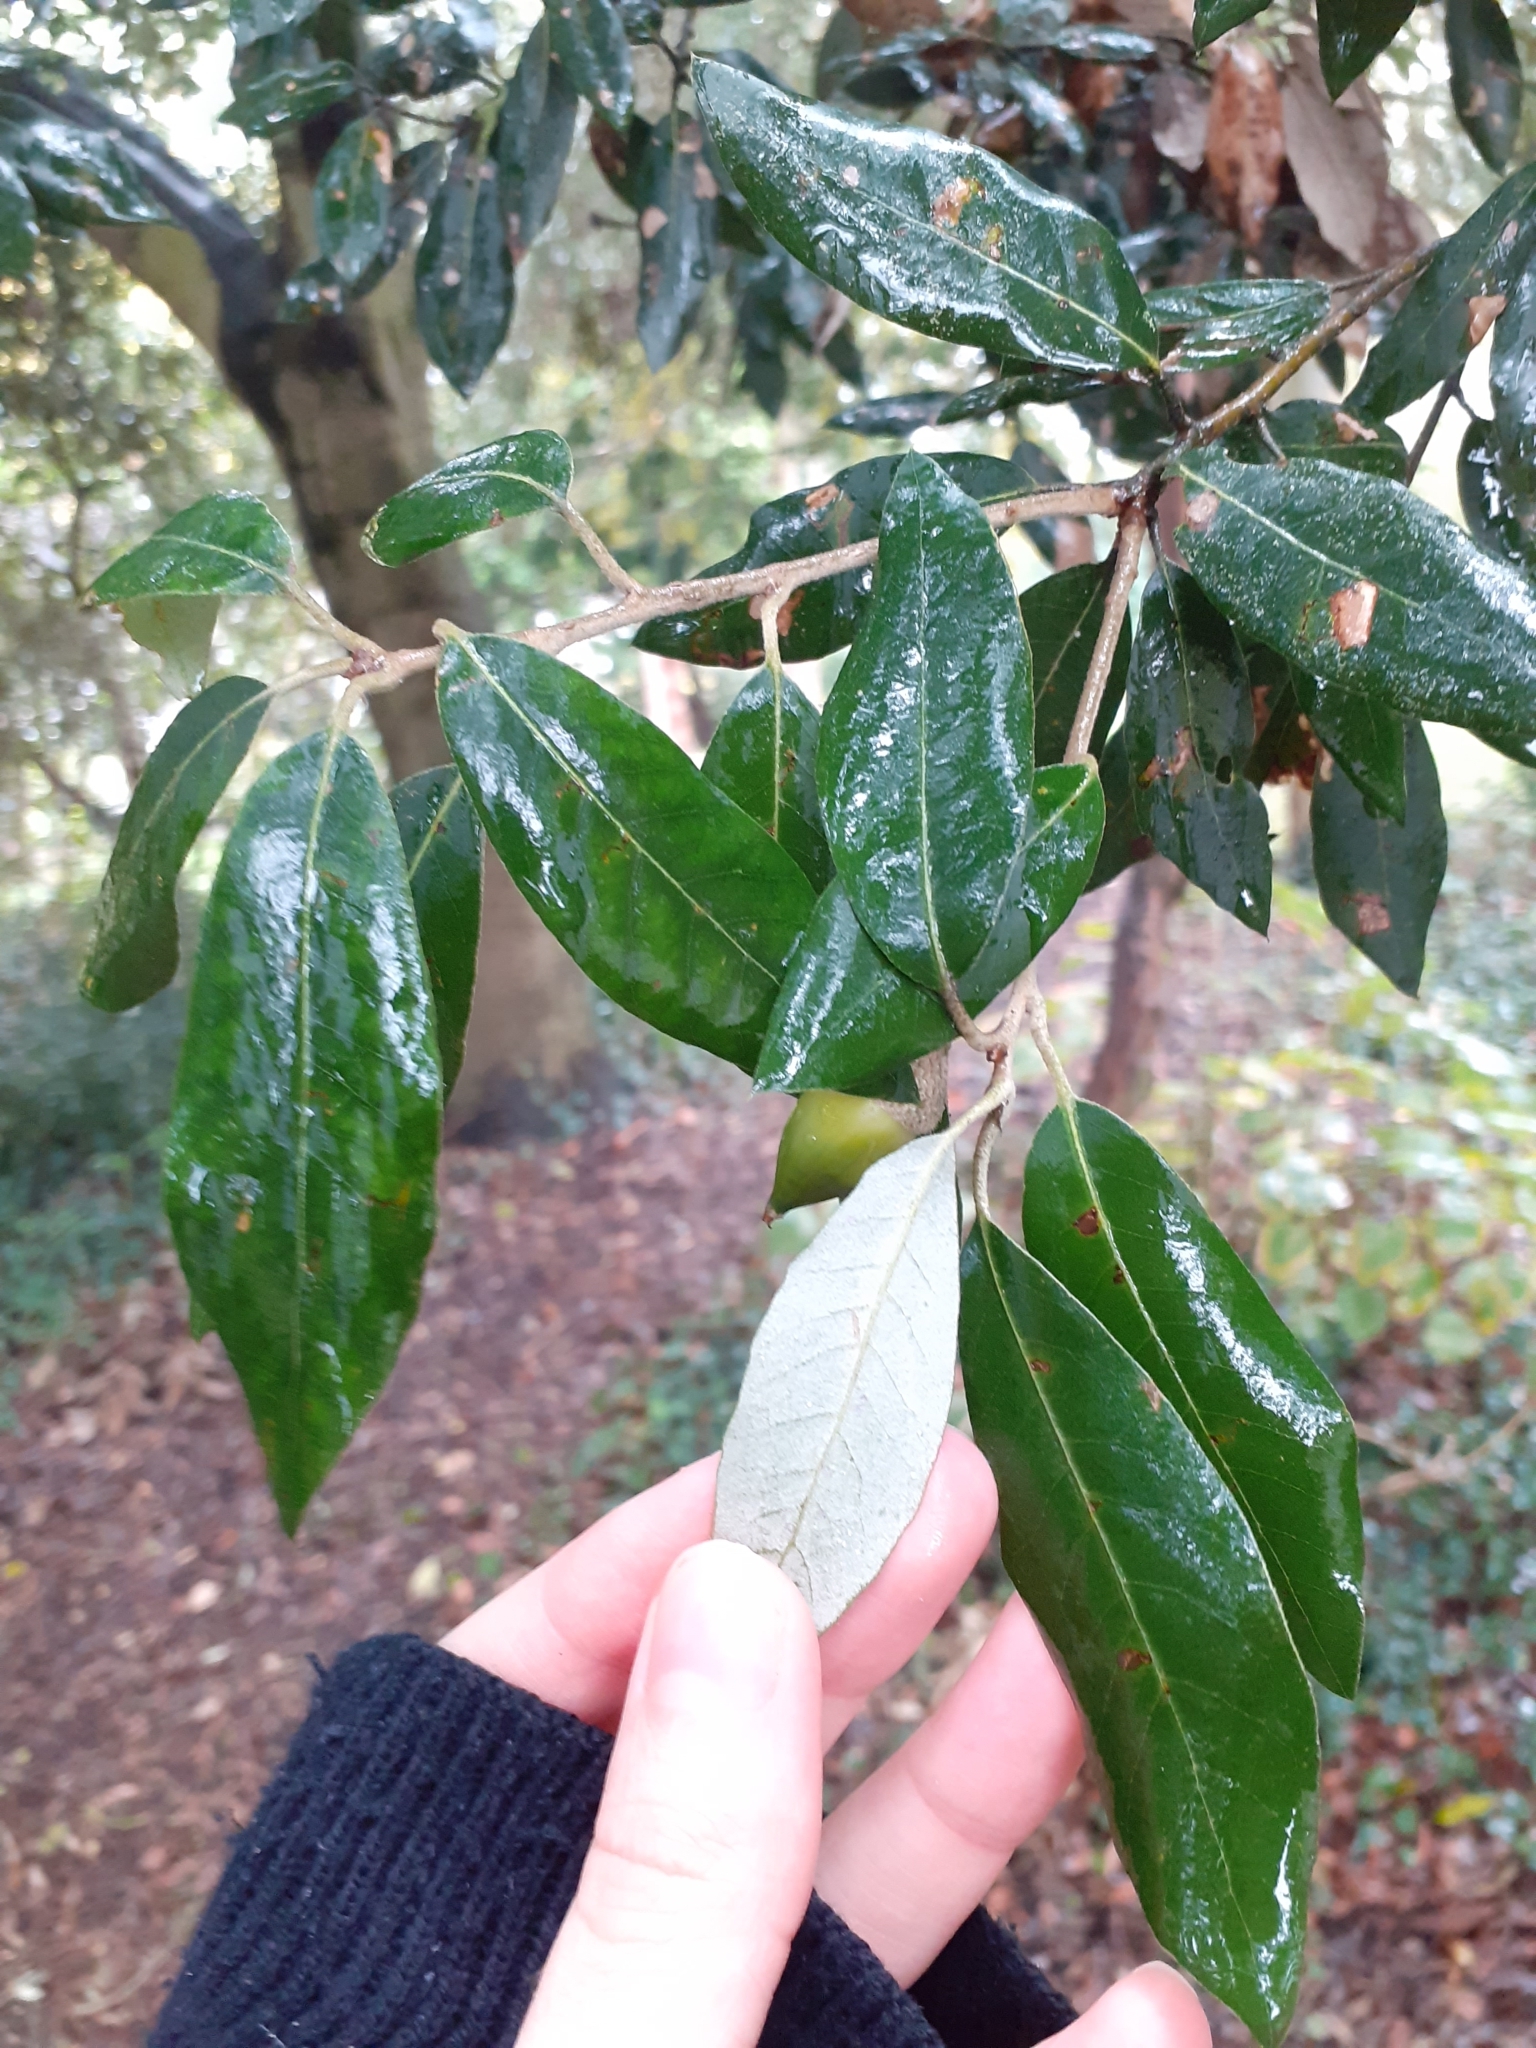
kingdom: Plantae
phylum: Tracheophyta
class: Magnoliopsida
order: Fagales
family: Fagaceae
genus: Quercus
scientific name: Quercus ilex
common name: Evergreen oak
